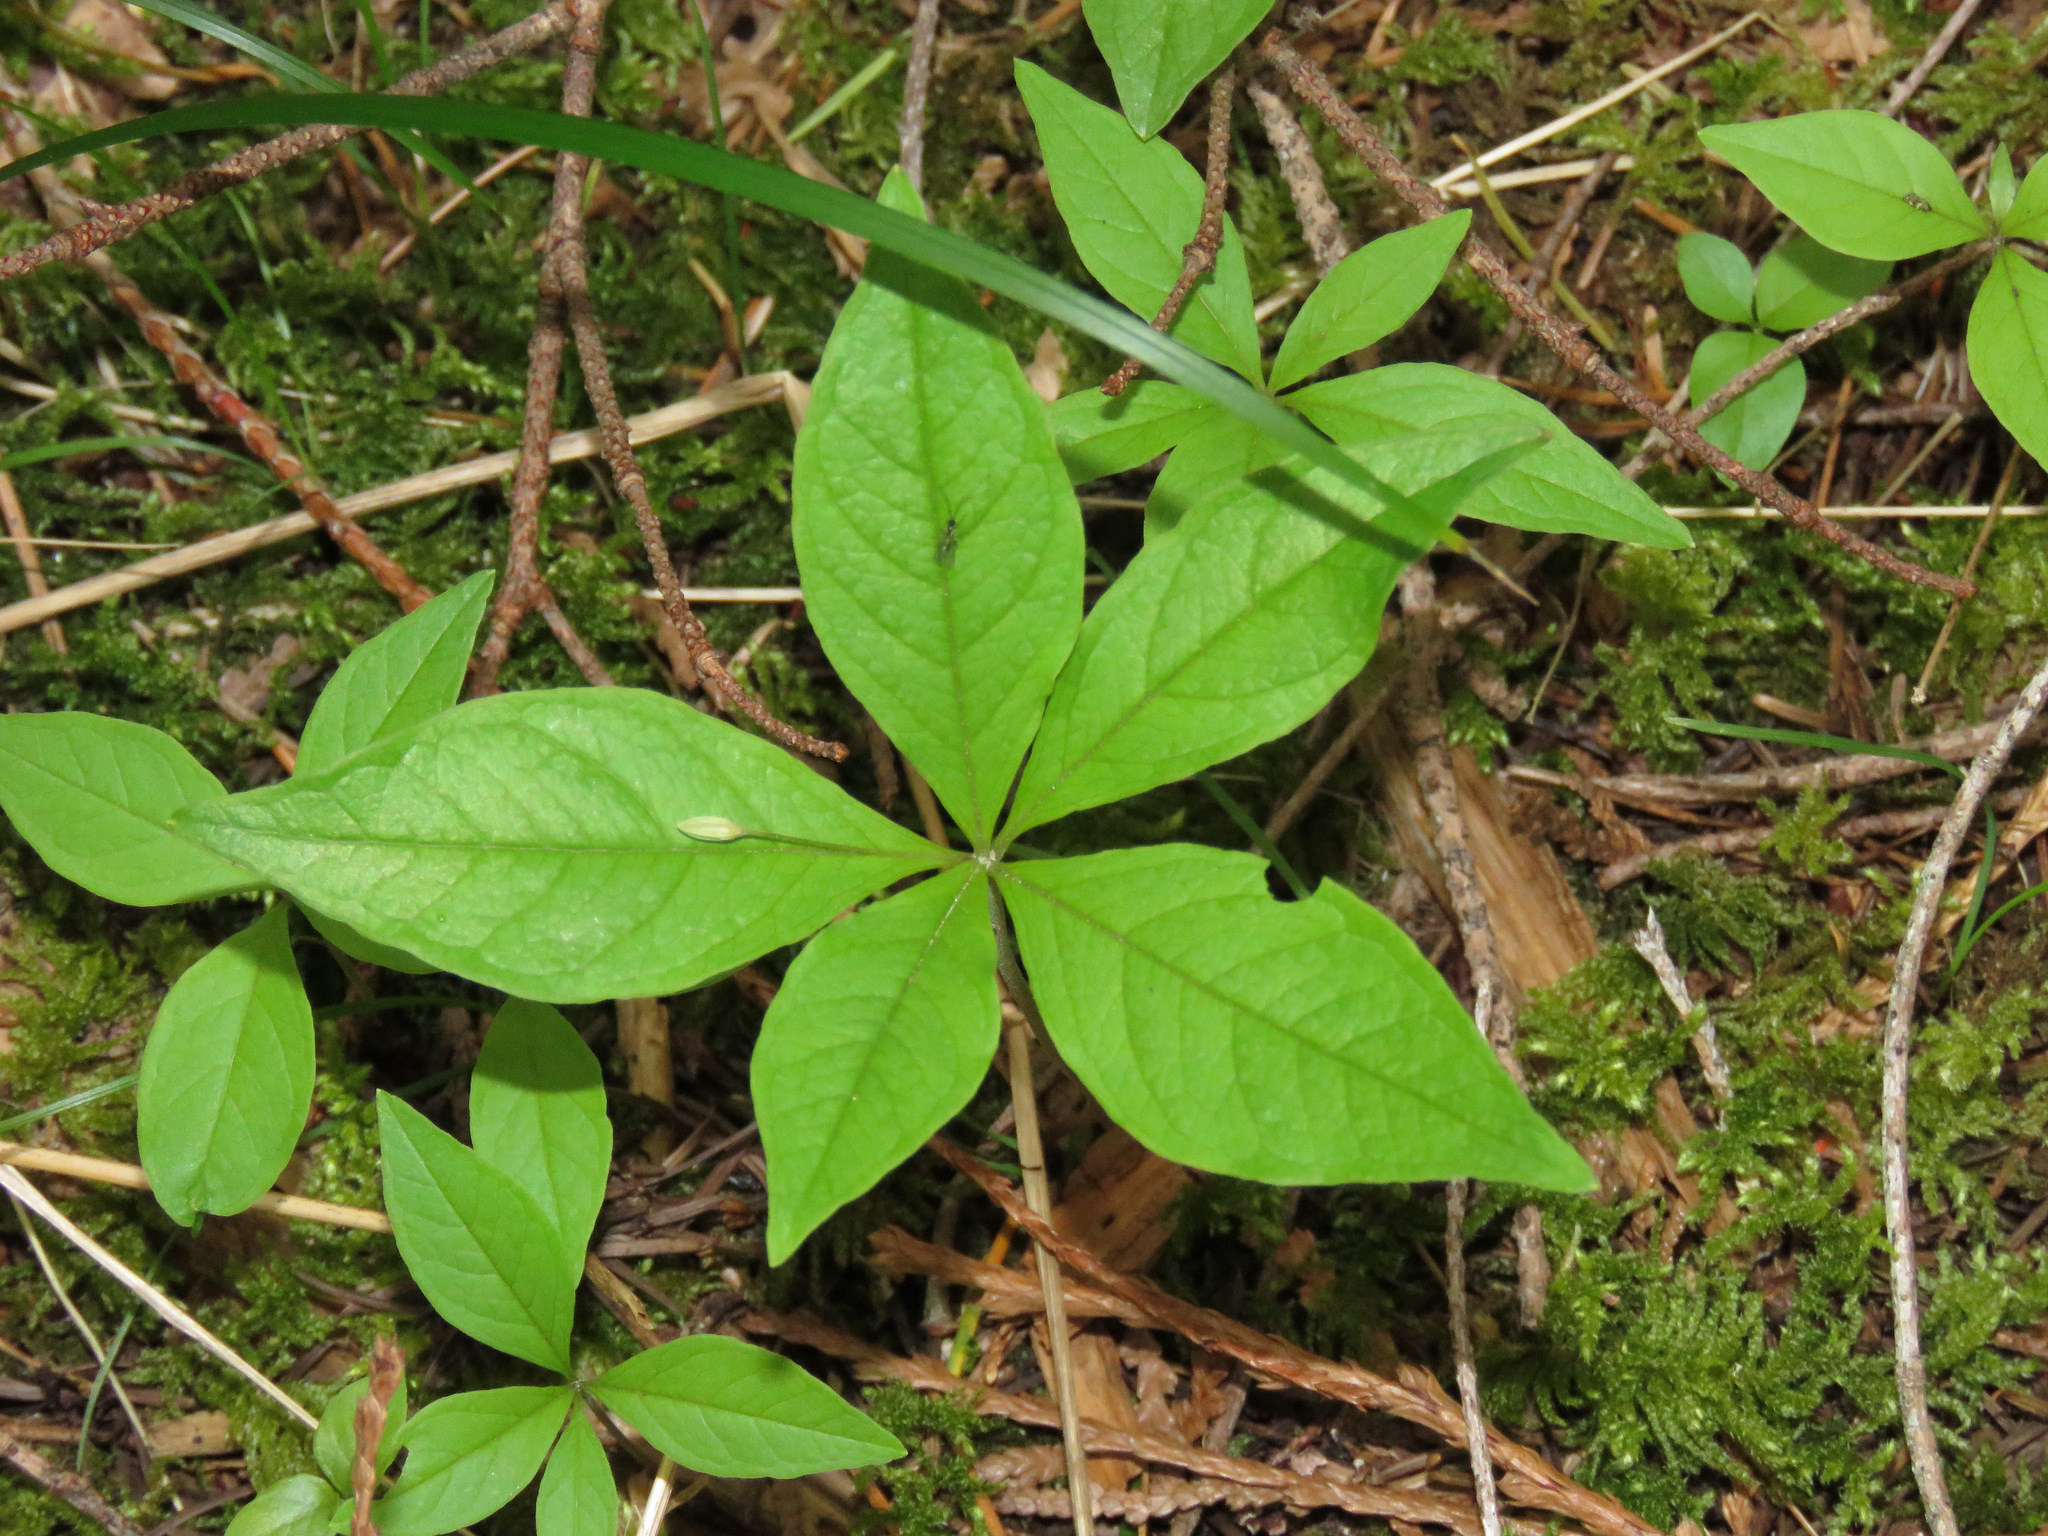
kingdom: Plantae
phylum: Tracheophyta
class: Magnoliopsida
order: Ericales
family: Primulaceae
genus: Lysimachia
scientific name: Lysimachia latifolia
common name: Pacific starflower
